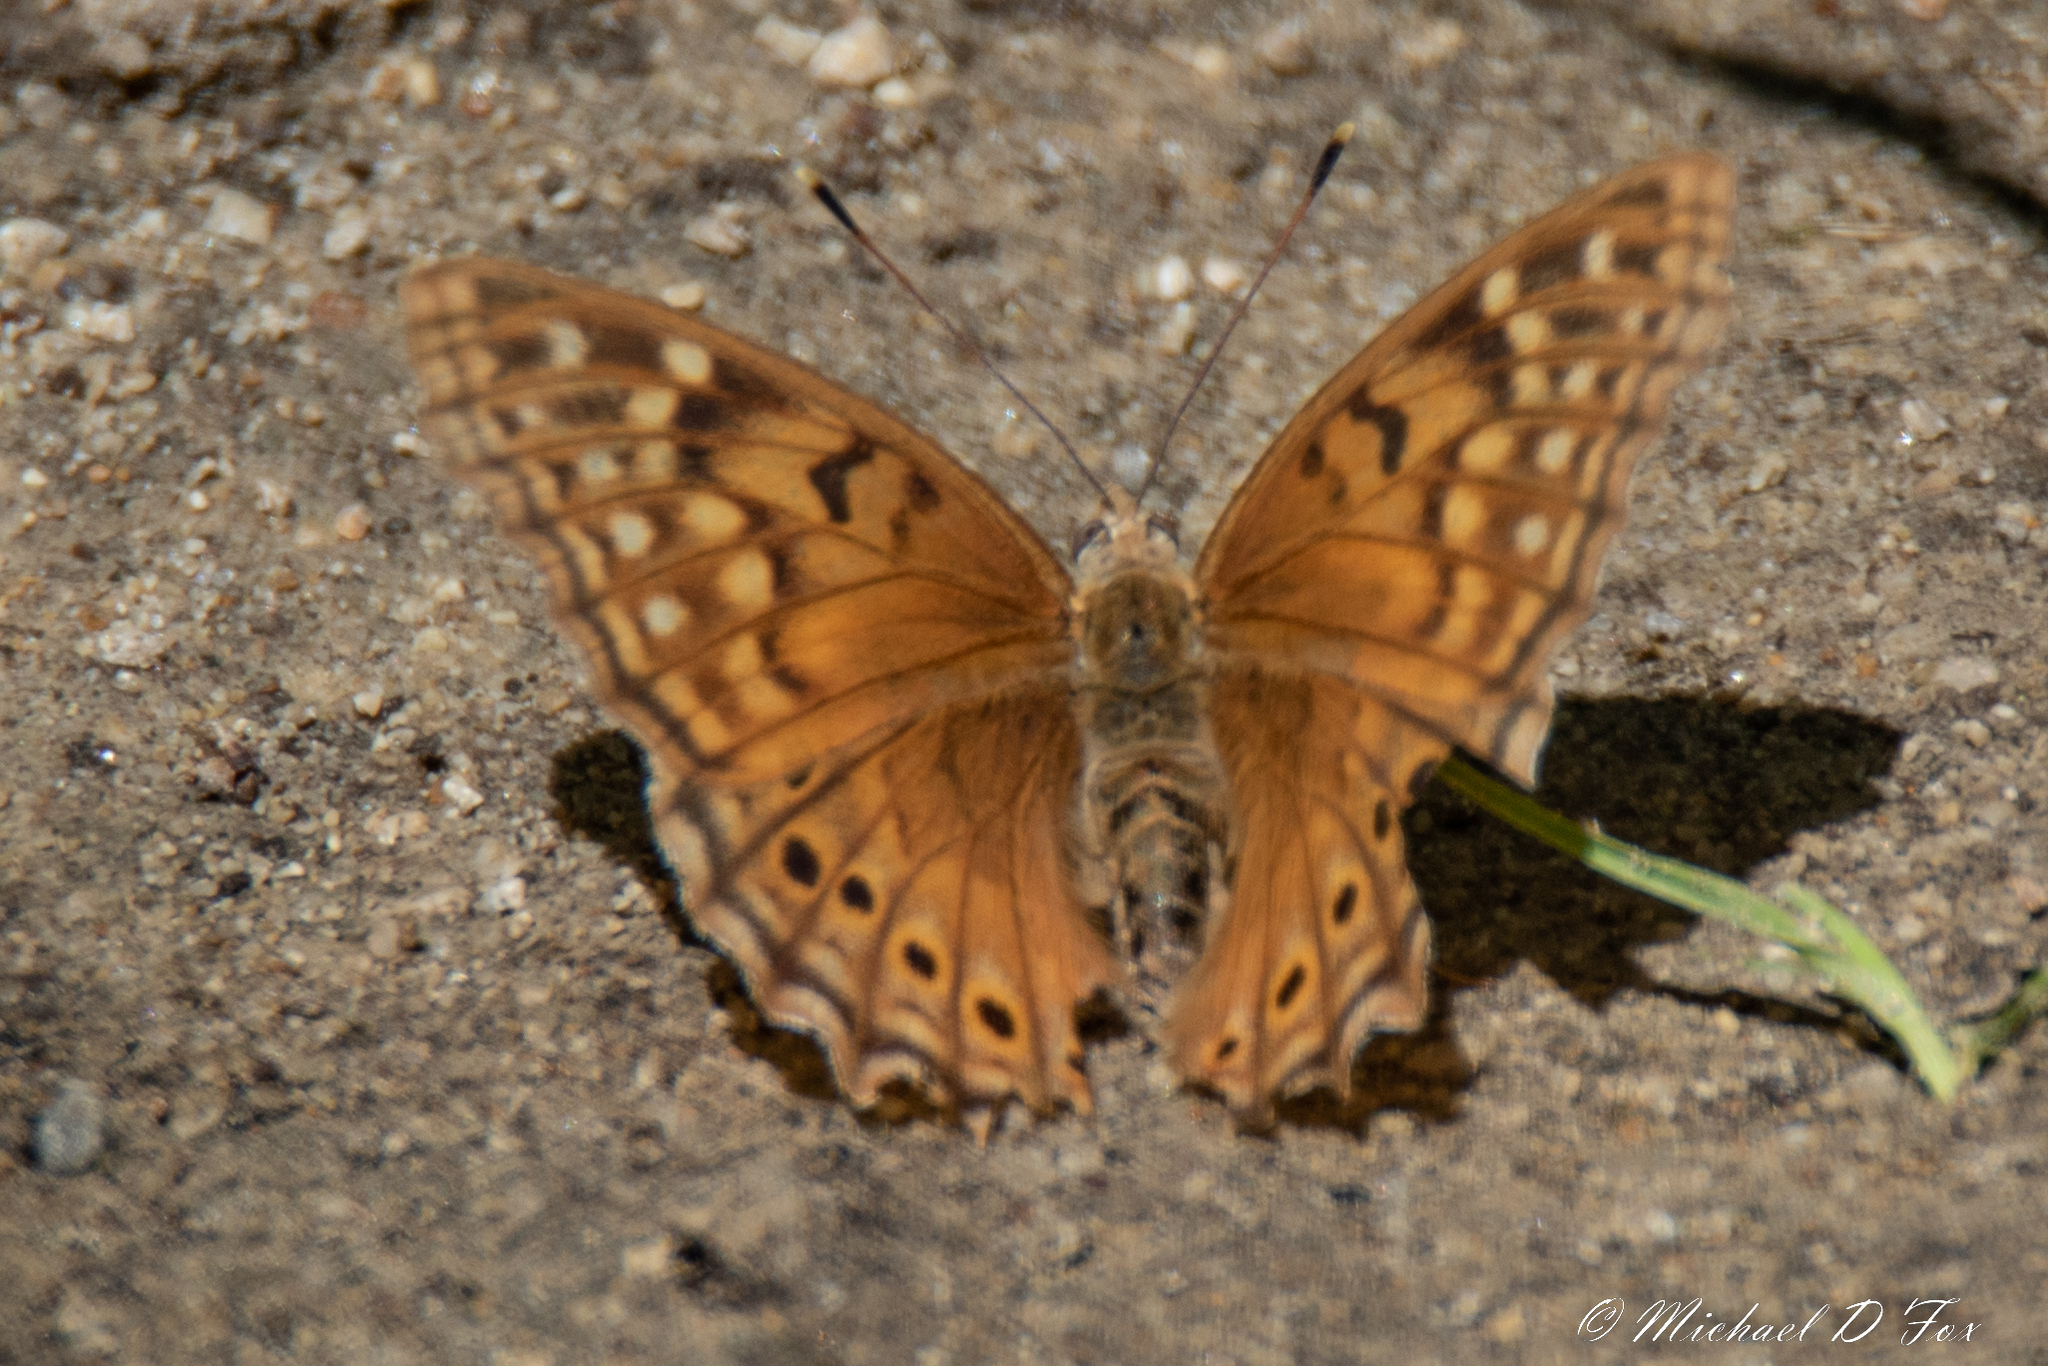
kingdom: Animalia
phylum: Arthropoda
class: Insecta
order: Lepidoptera
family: Nymphalidae
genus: Asterocampa
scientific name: Asterocampa clyton
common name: Tawny emperor
